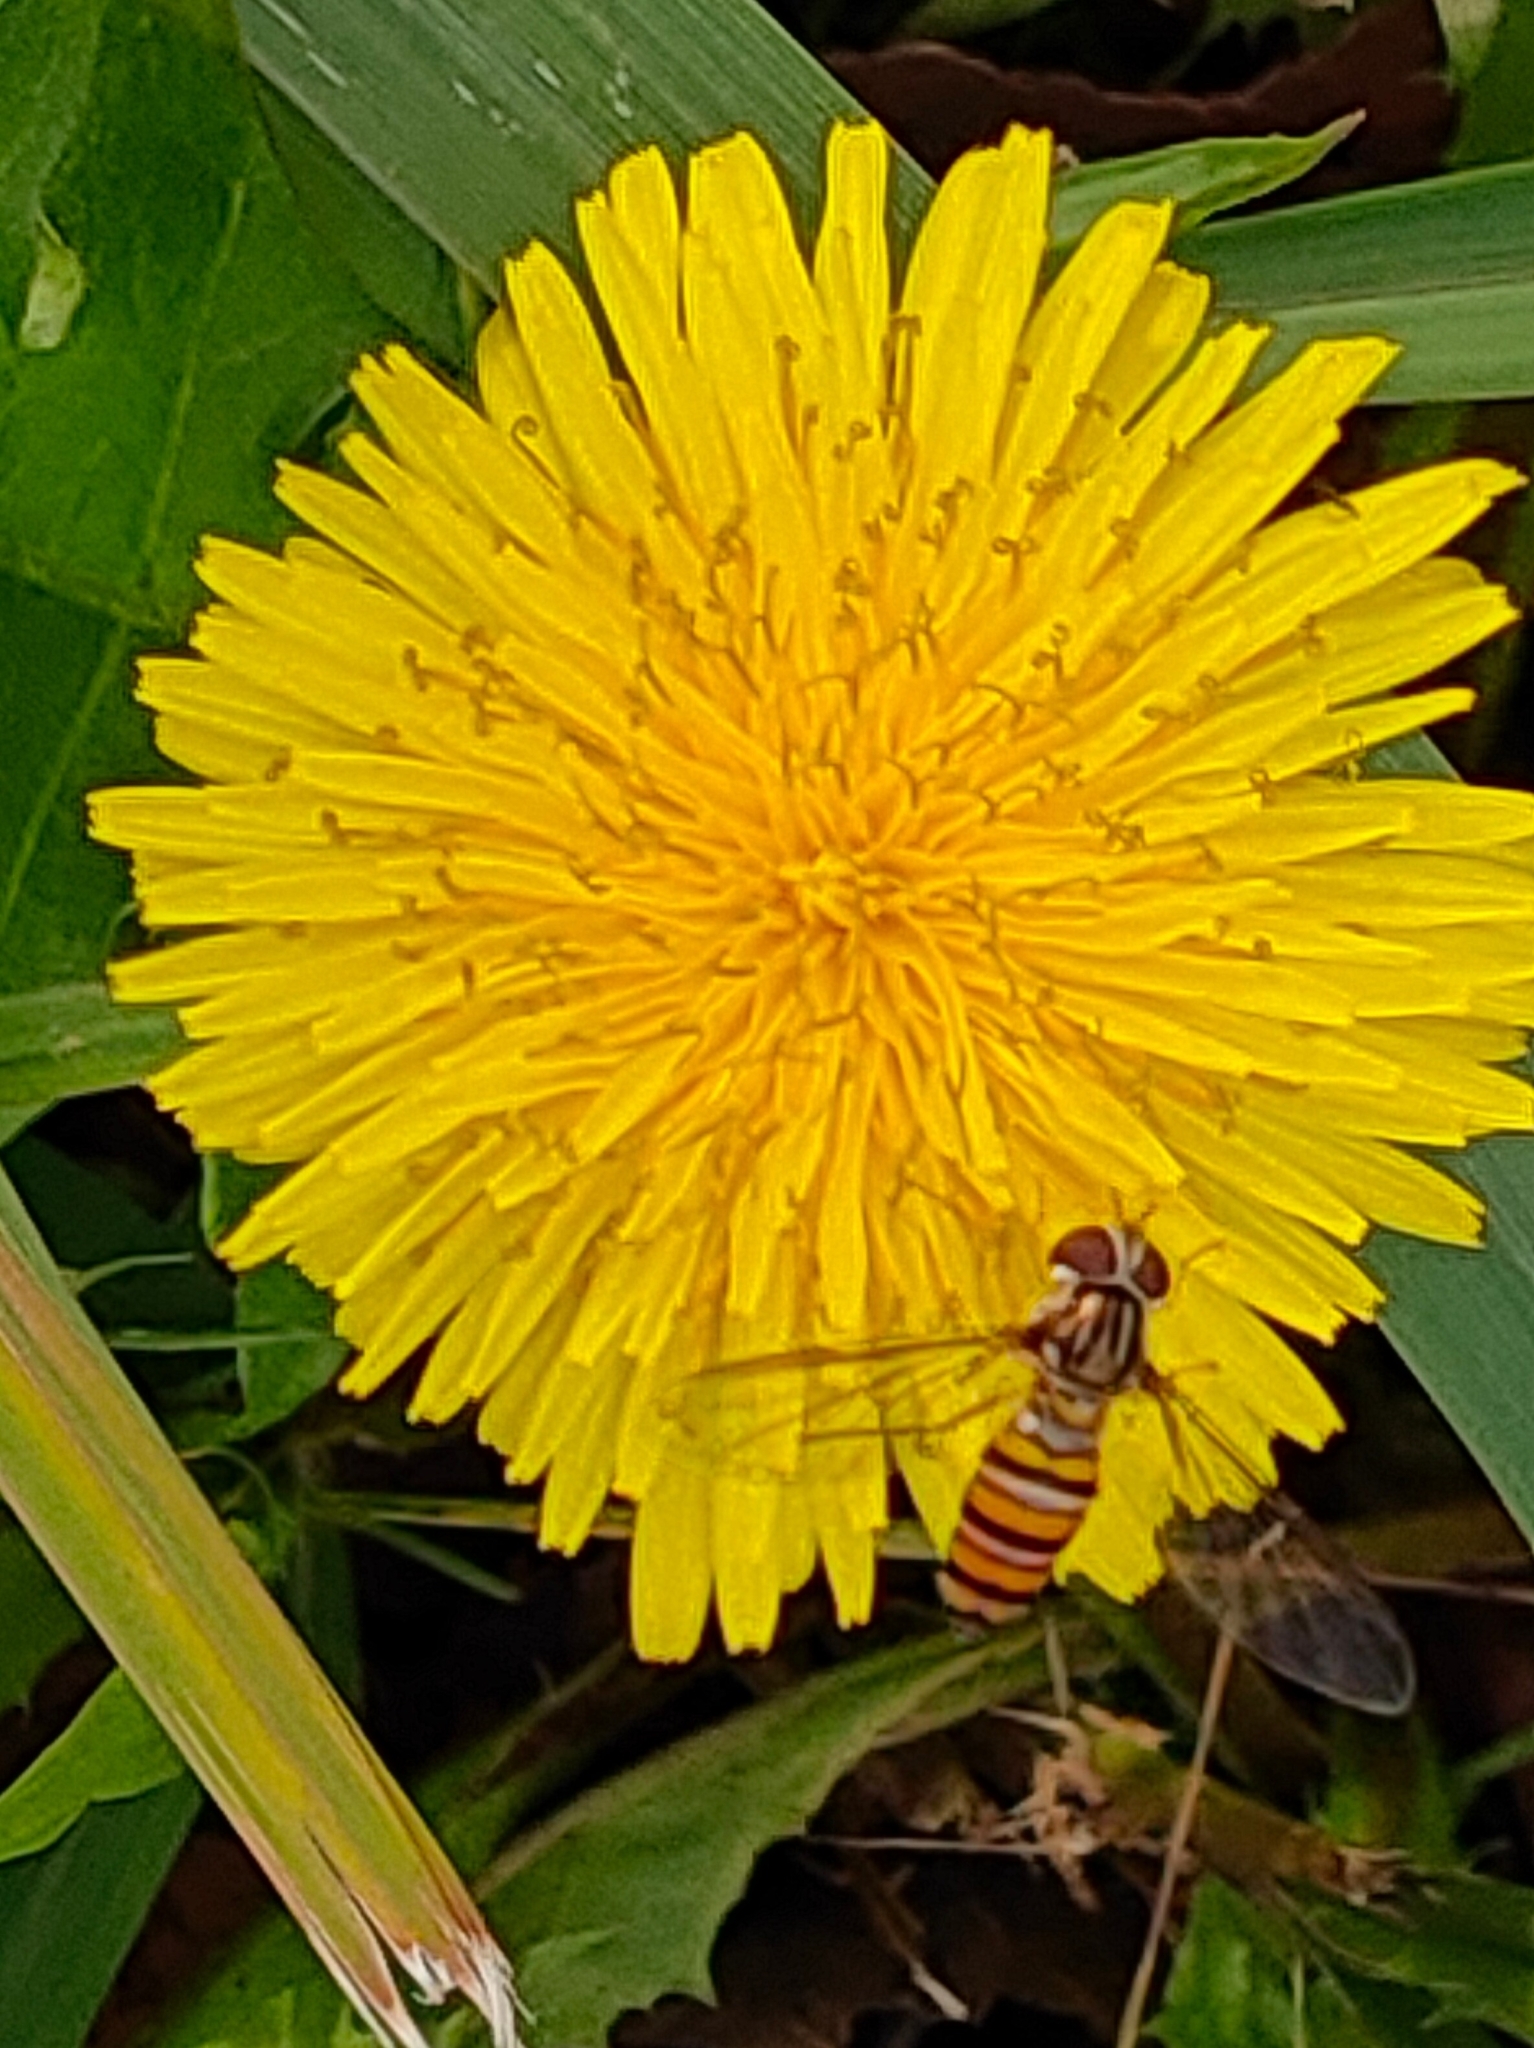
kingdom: Animalia
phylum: Arthropoda
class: Insecta
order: Diptera
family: Syrphidae
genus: Episyrphus
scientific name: Episyrphus balteatus
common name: Marmalade hoverfly
